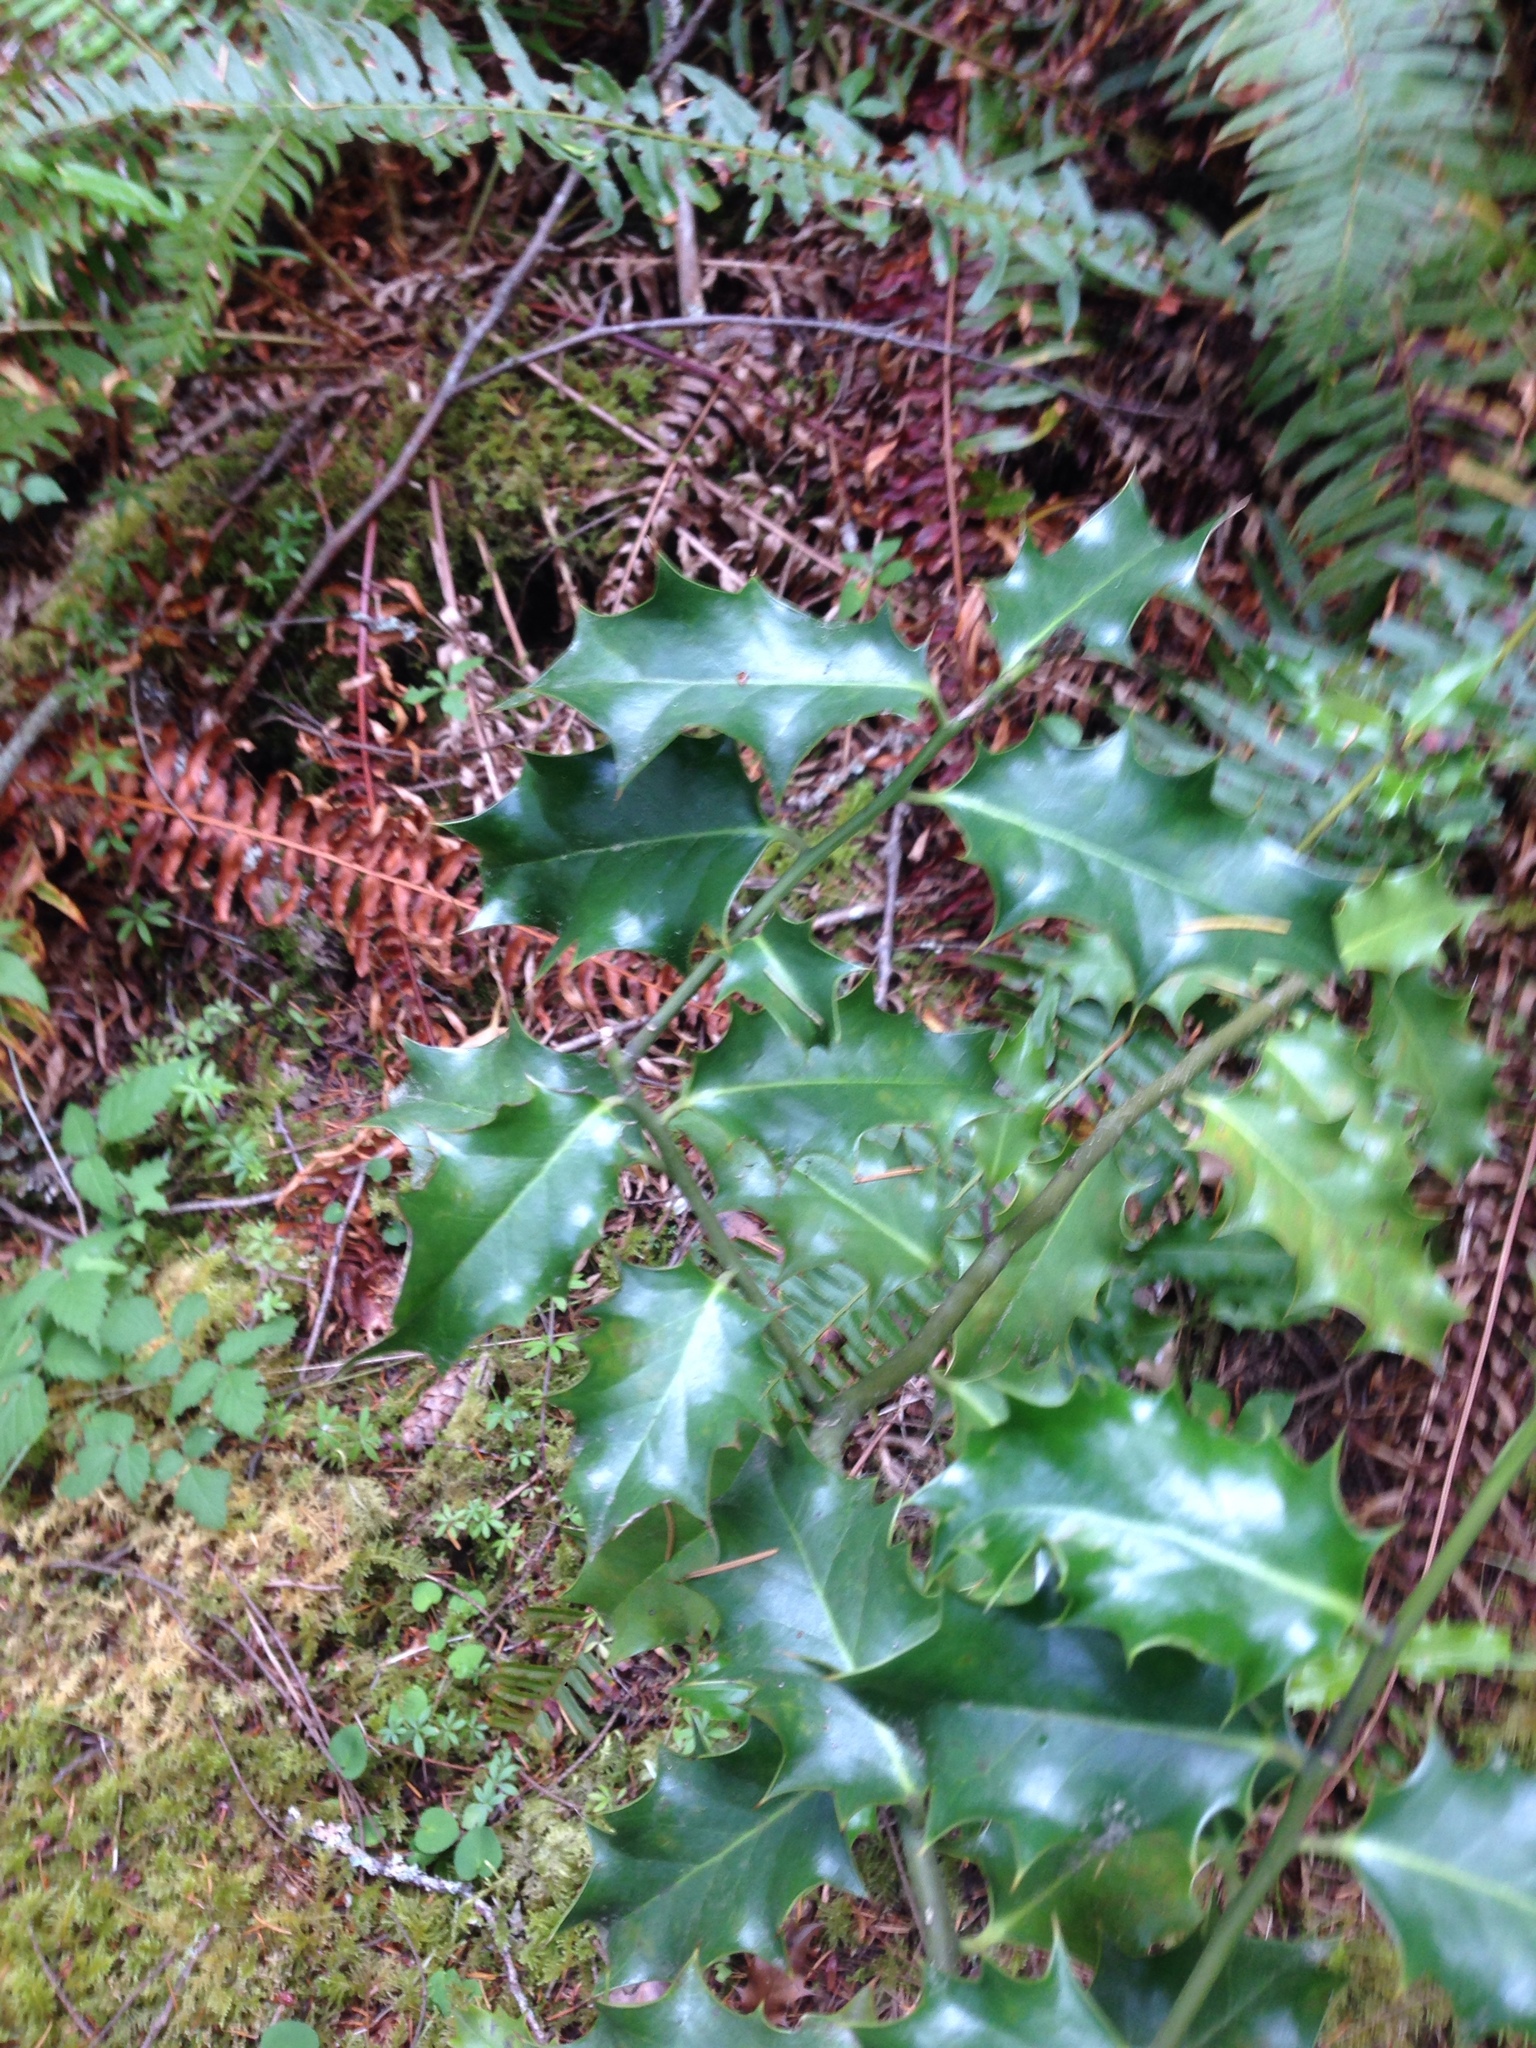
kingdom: Plantae
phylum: Tracheophyta
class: Magnoliopsida
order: Aquifoliales
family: Aquifoliaceae
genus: Ilex
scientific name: Ilex aquifolium
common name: English holly
